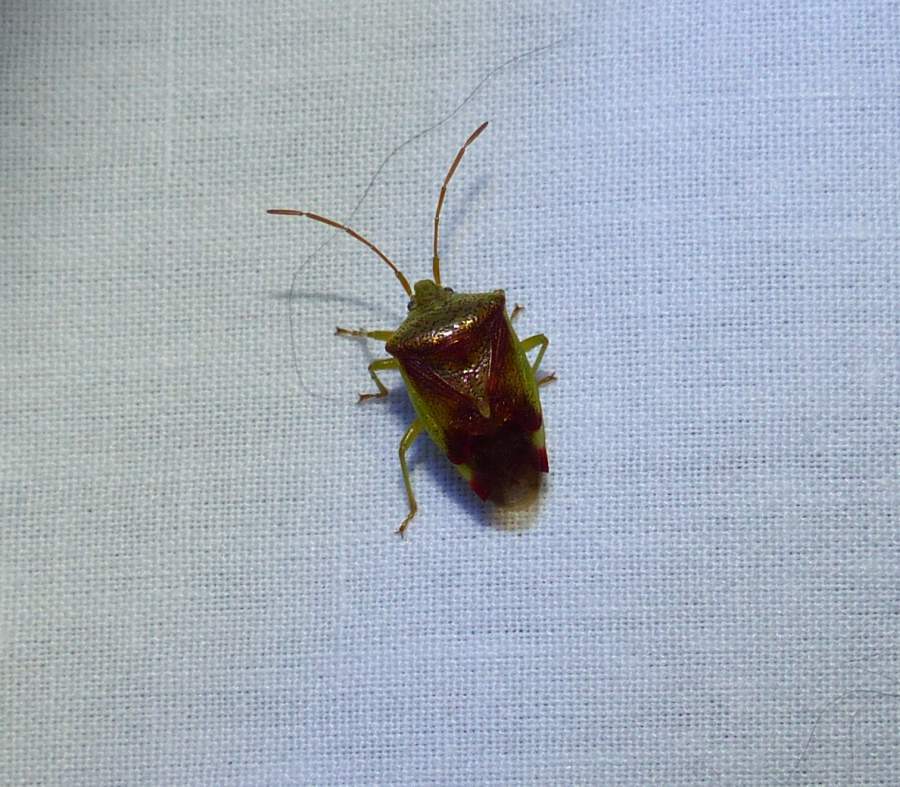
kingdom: Animalia
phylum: Arthropoda
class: Insecta
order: Hemiptera
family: Acanthosomatidae
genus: Elasmostethus
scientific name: Elasmostethus cruciatus
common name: Red-cross shield bug
